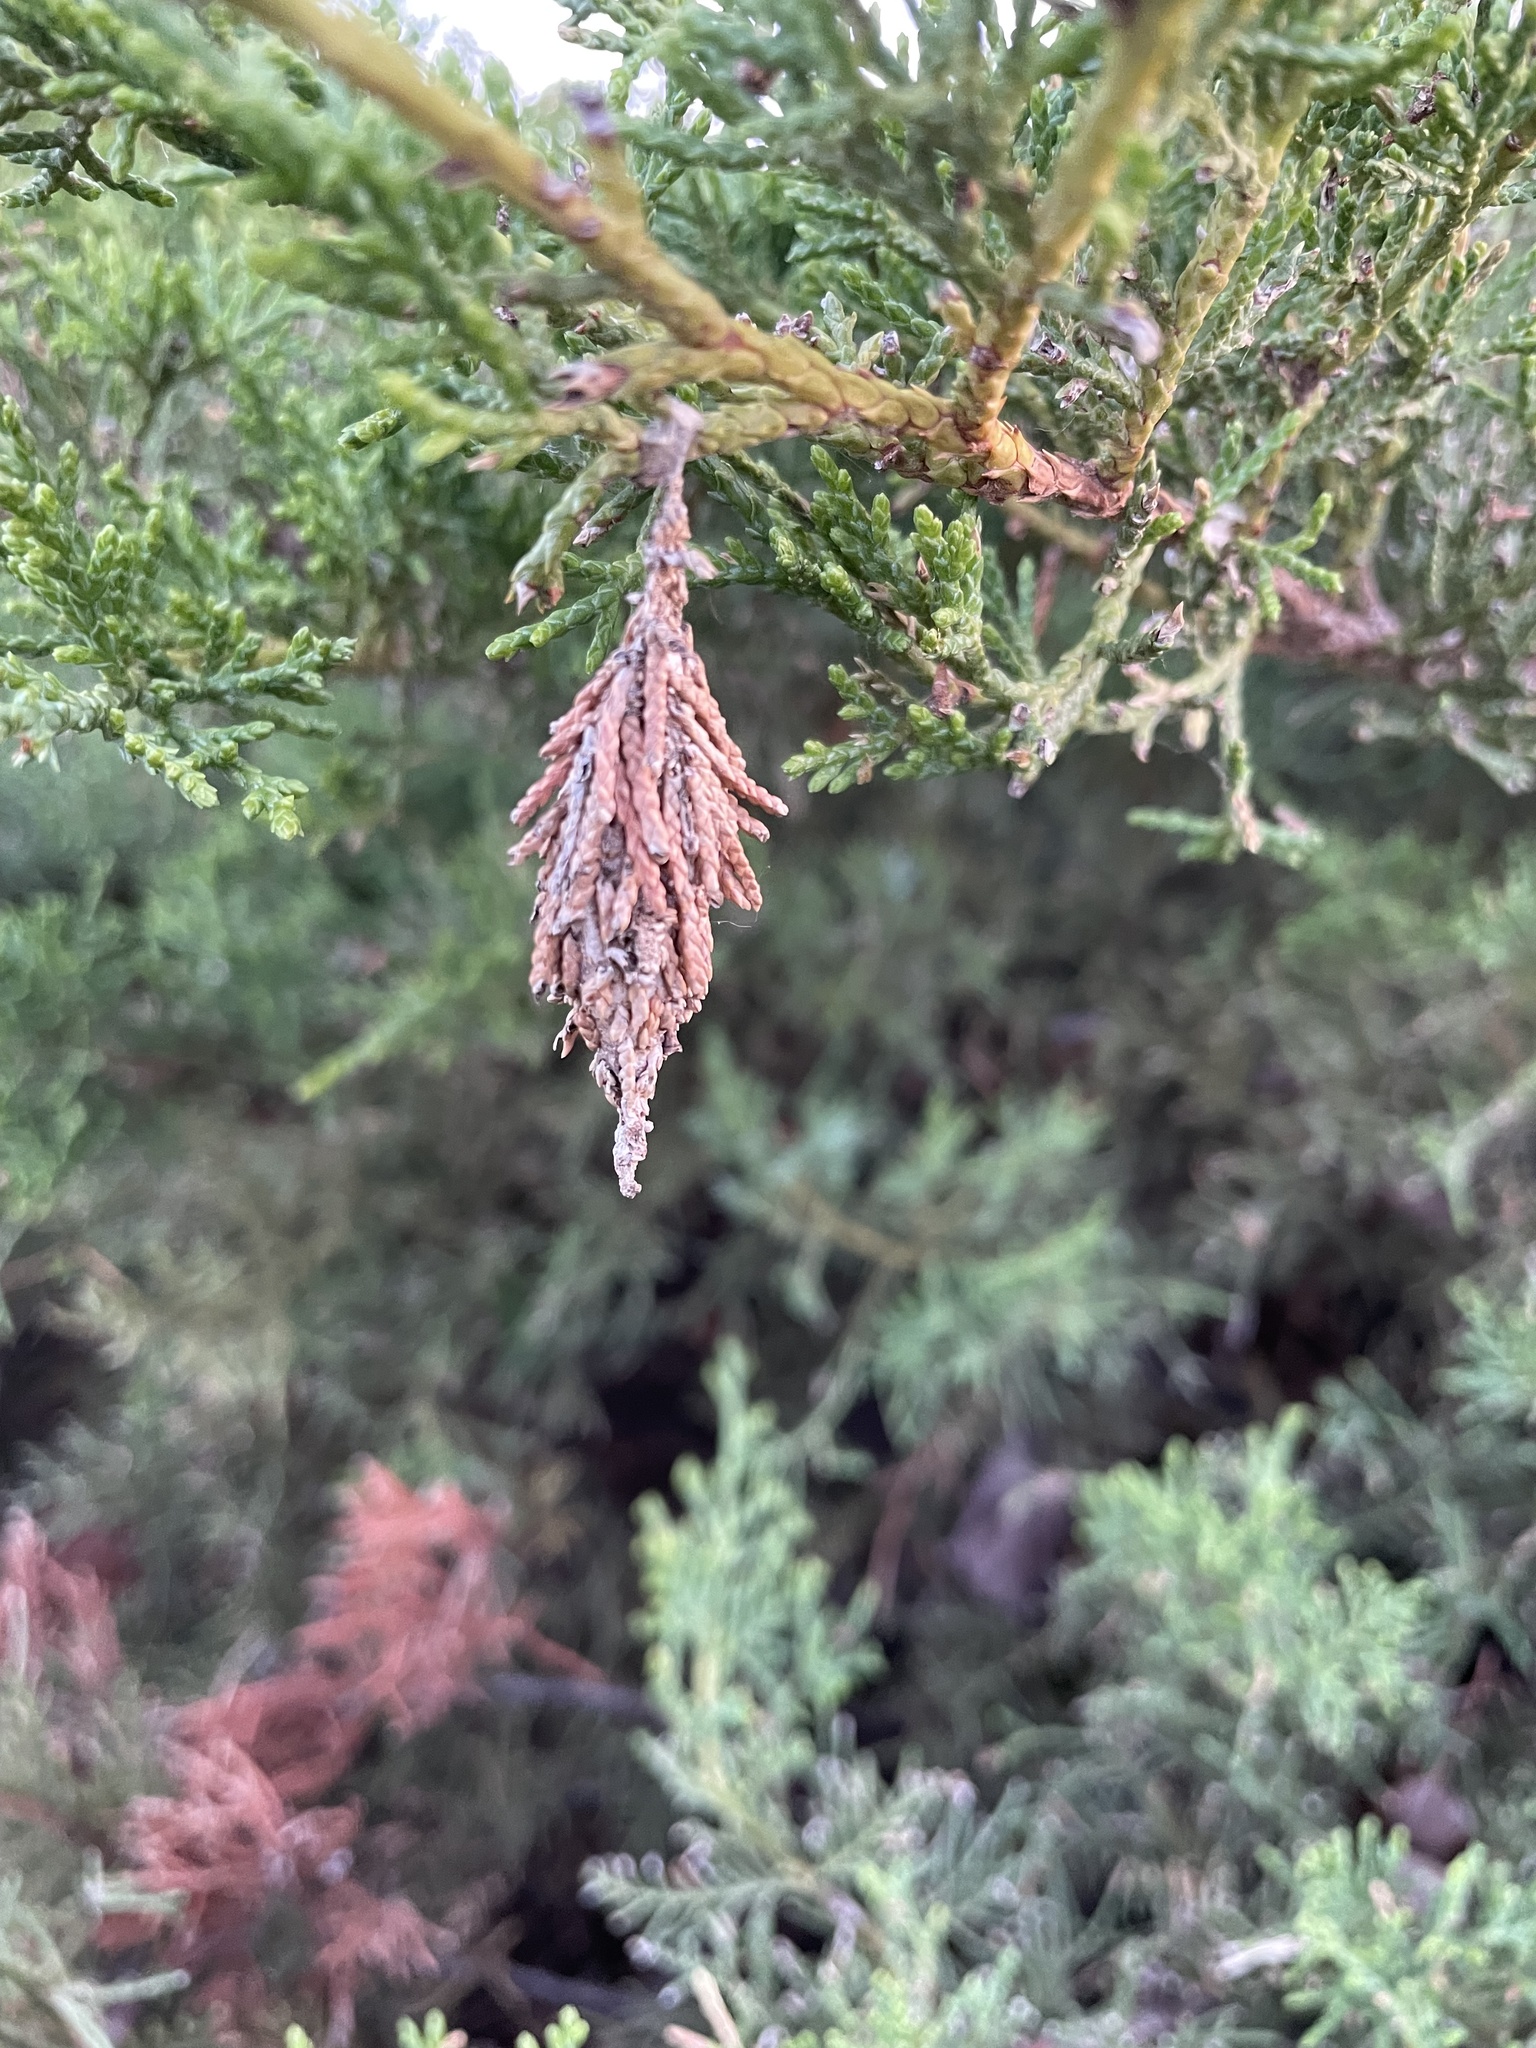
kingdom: Animalia
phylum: Arthropoda
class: Insecta
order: Lepidoptera
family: Psychidae
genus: Thyridopteryx
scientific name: Thyridopteryx ephemeraeformis
